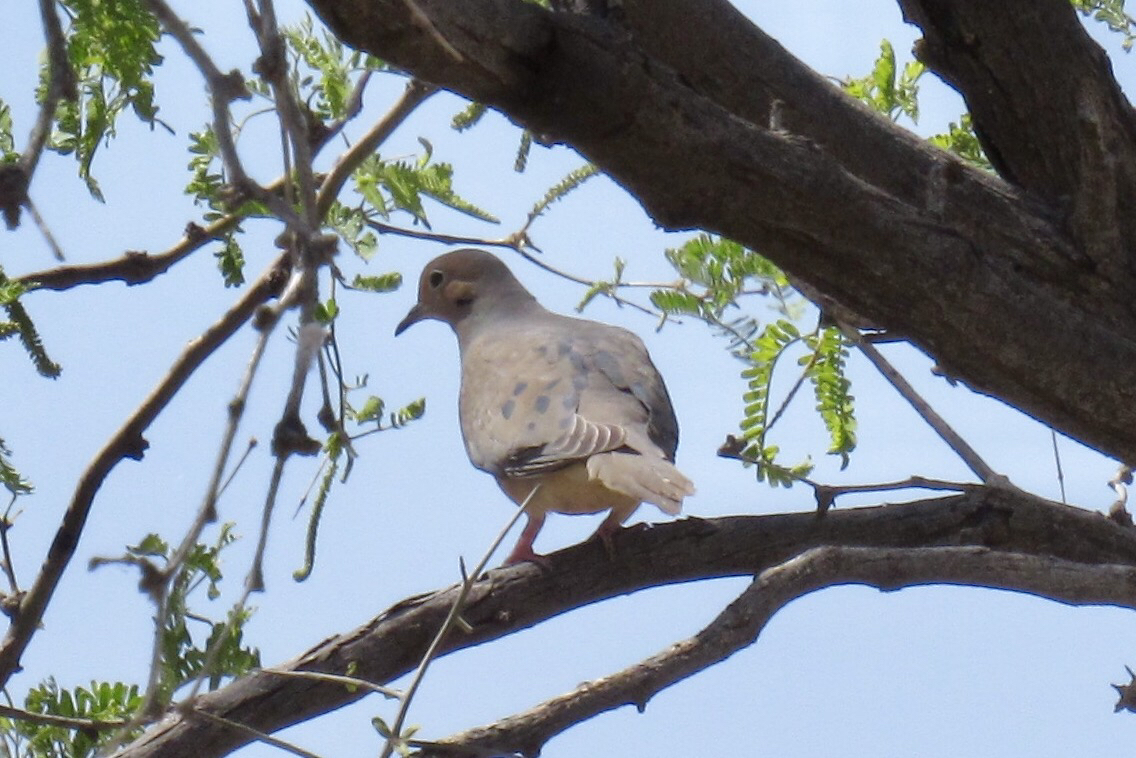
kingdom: Animalia
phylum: Chordata
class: Aves
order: Columbiformes
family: Columbidae
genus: Zenaida
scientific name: Zenaida macroura
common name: Mourning dove
